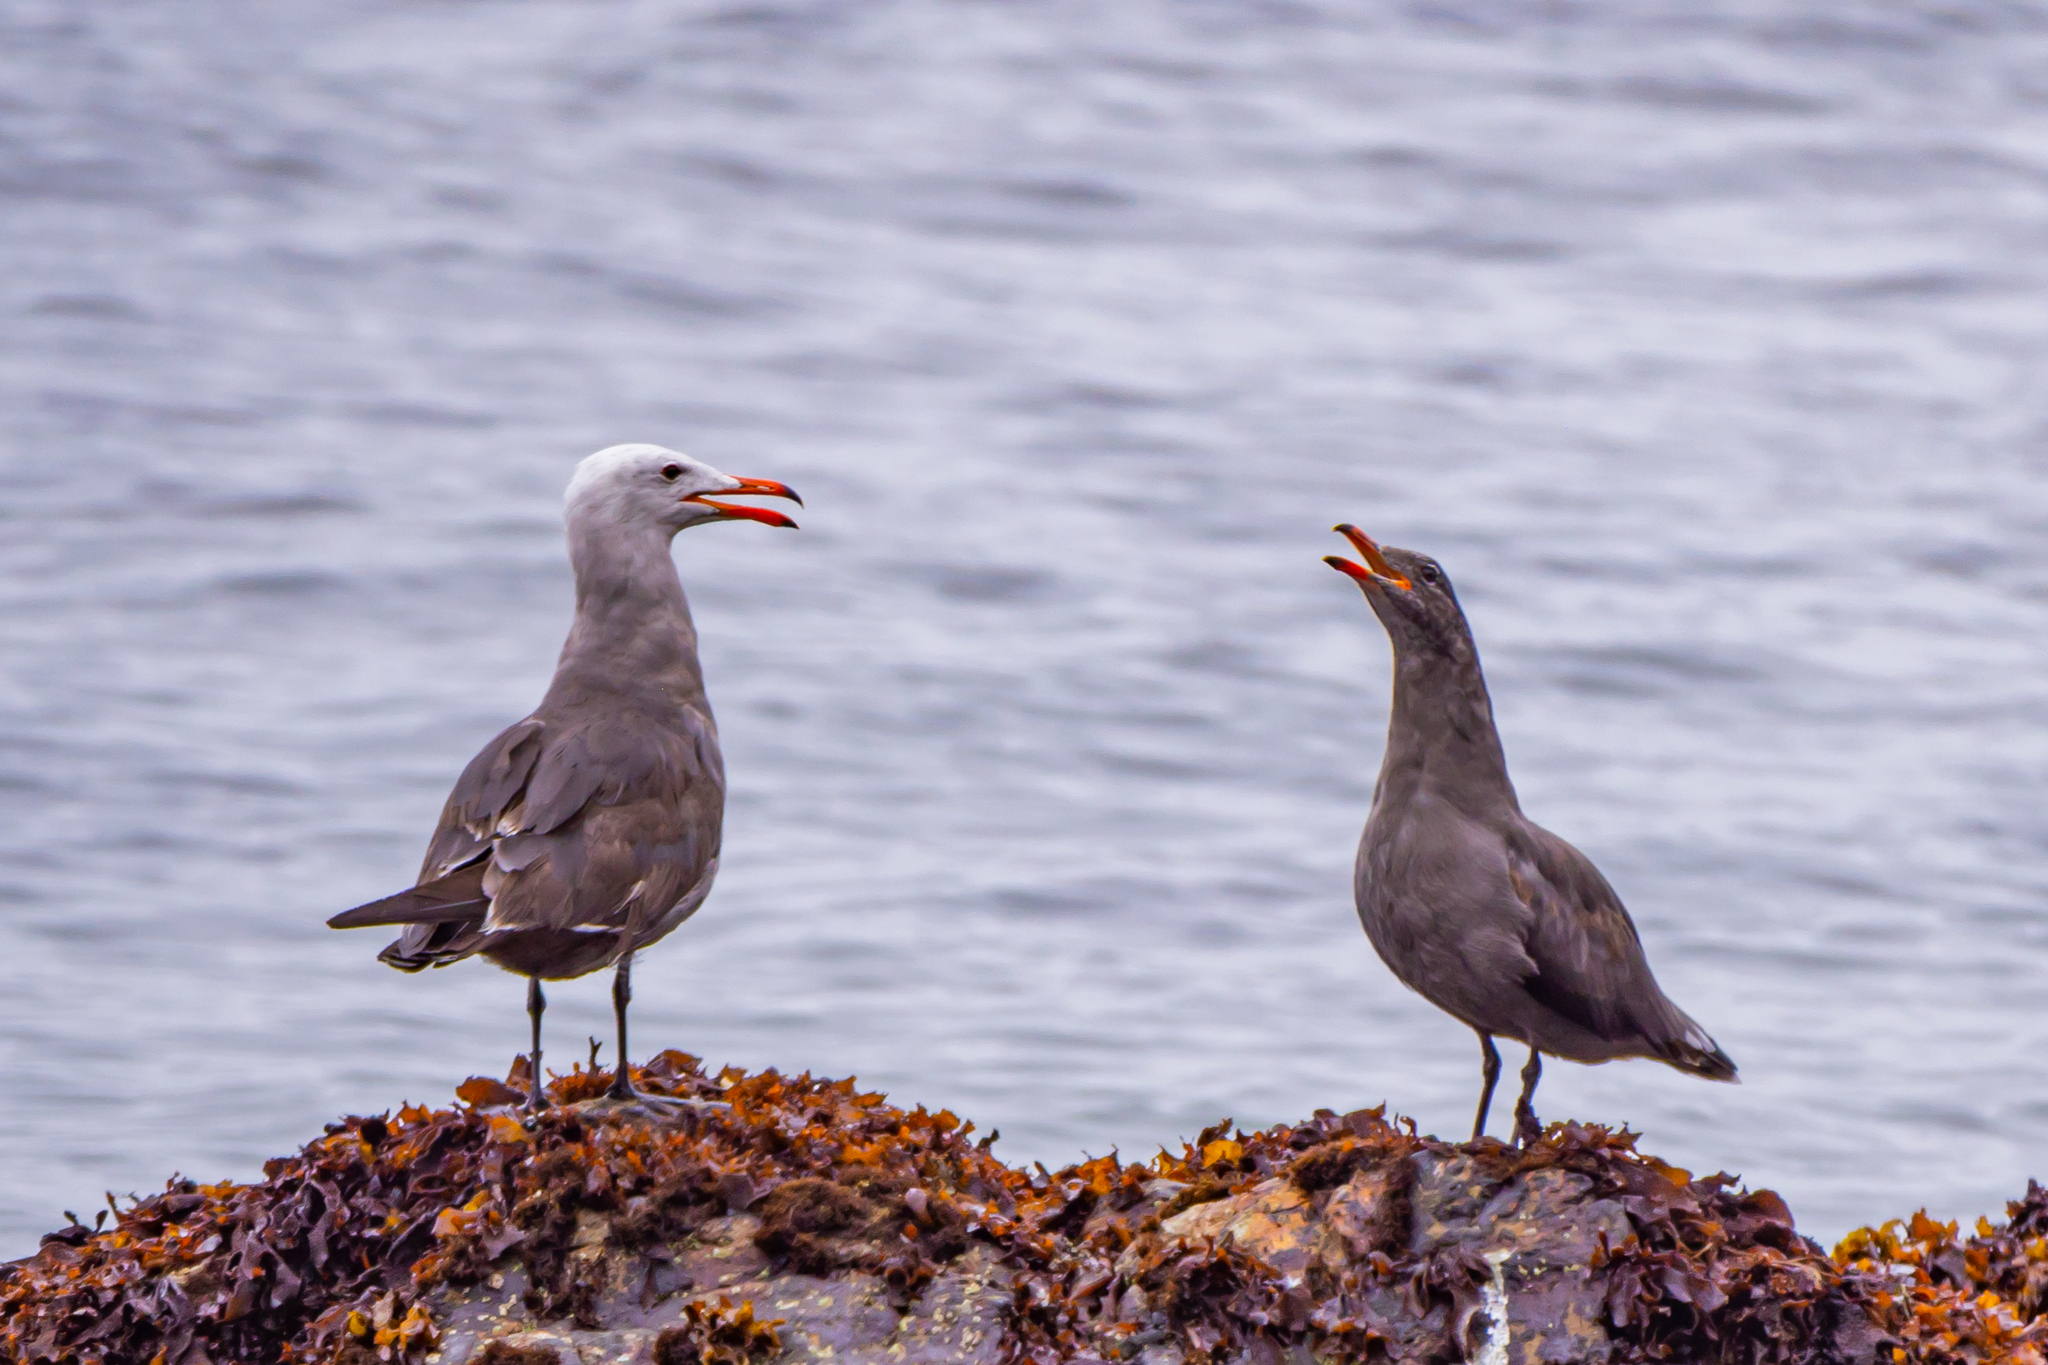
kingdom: Animalia
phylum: Chordata
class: Aves
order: Charadriiformes
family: Laridae
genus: Larus
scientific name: Larus heermanni
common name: Heermann's gull
